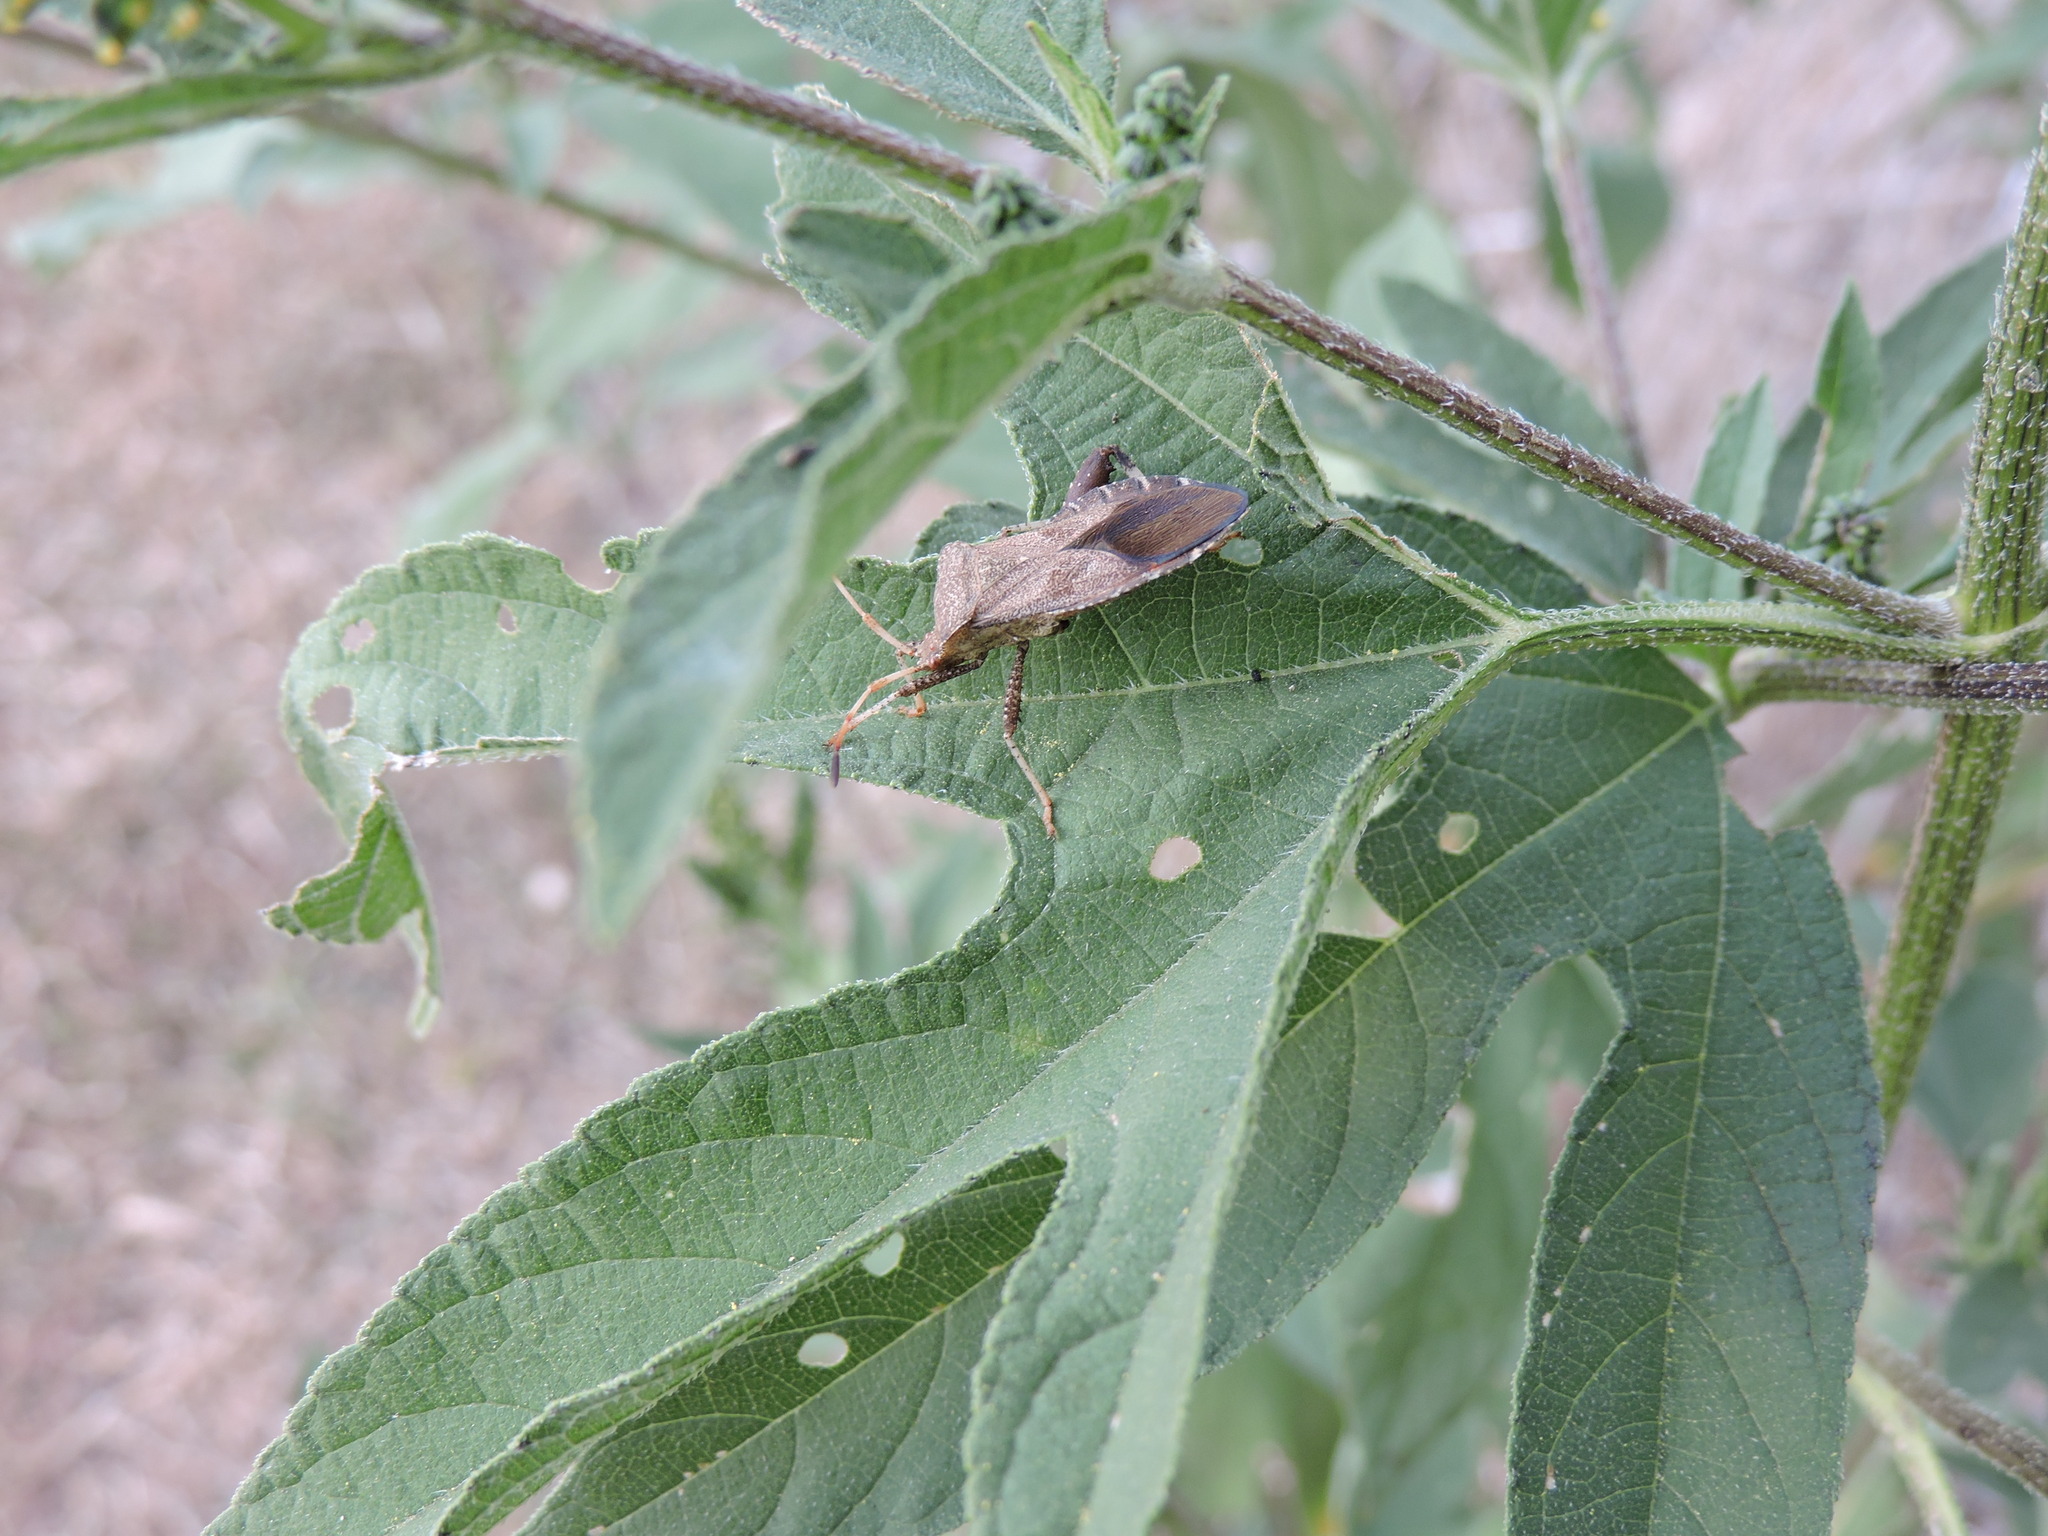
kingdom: Animalia
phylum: Arthropoda
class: Insecta
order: Hemiptera
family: Coreidae
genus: Euthochtha
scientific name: Euthochtha galeator
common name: Helmeted squash bug
